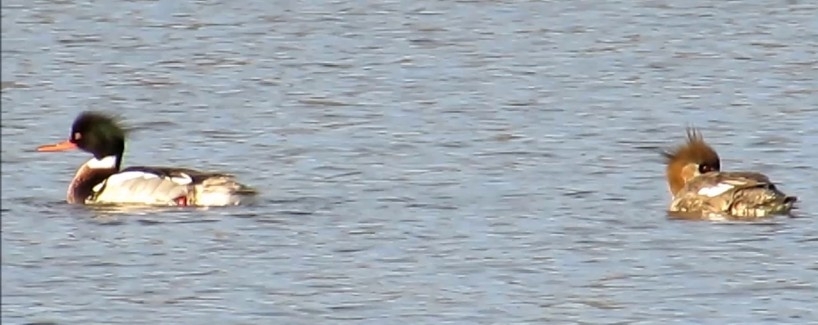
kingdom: Animalia
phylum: Chordata
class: Aves
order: Anseriformes
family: Anatidae
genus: Mergus
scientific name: Mergus serrator
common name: Red-breasted merganser
